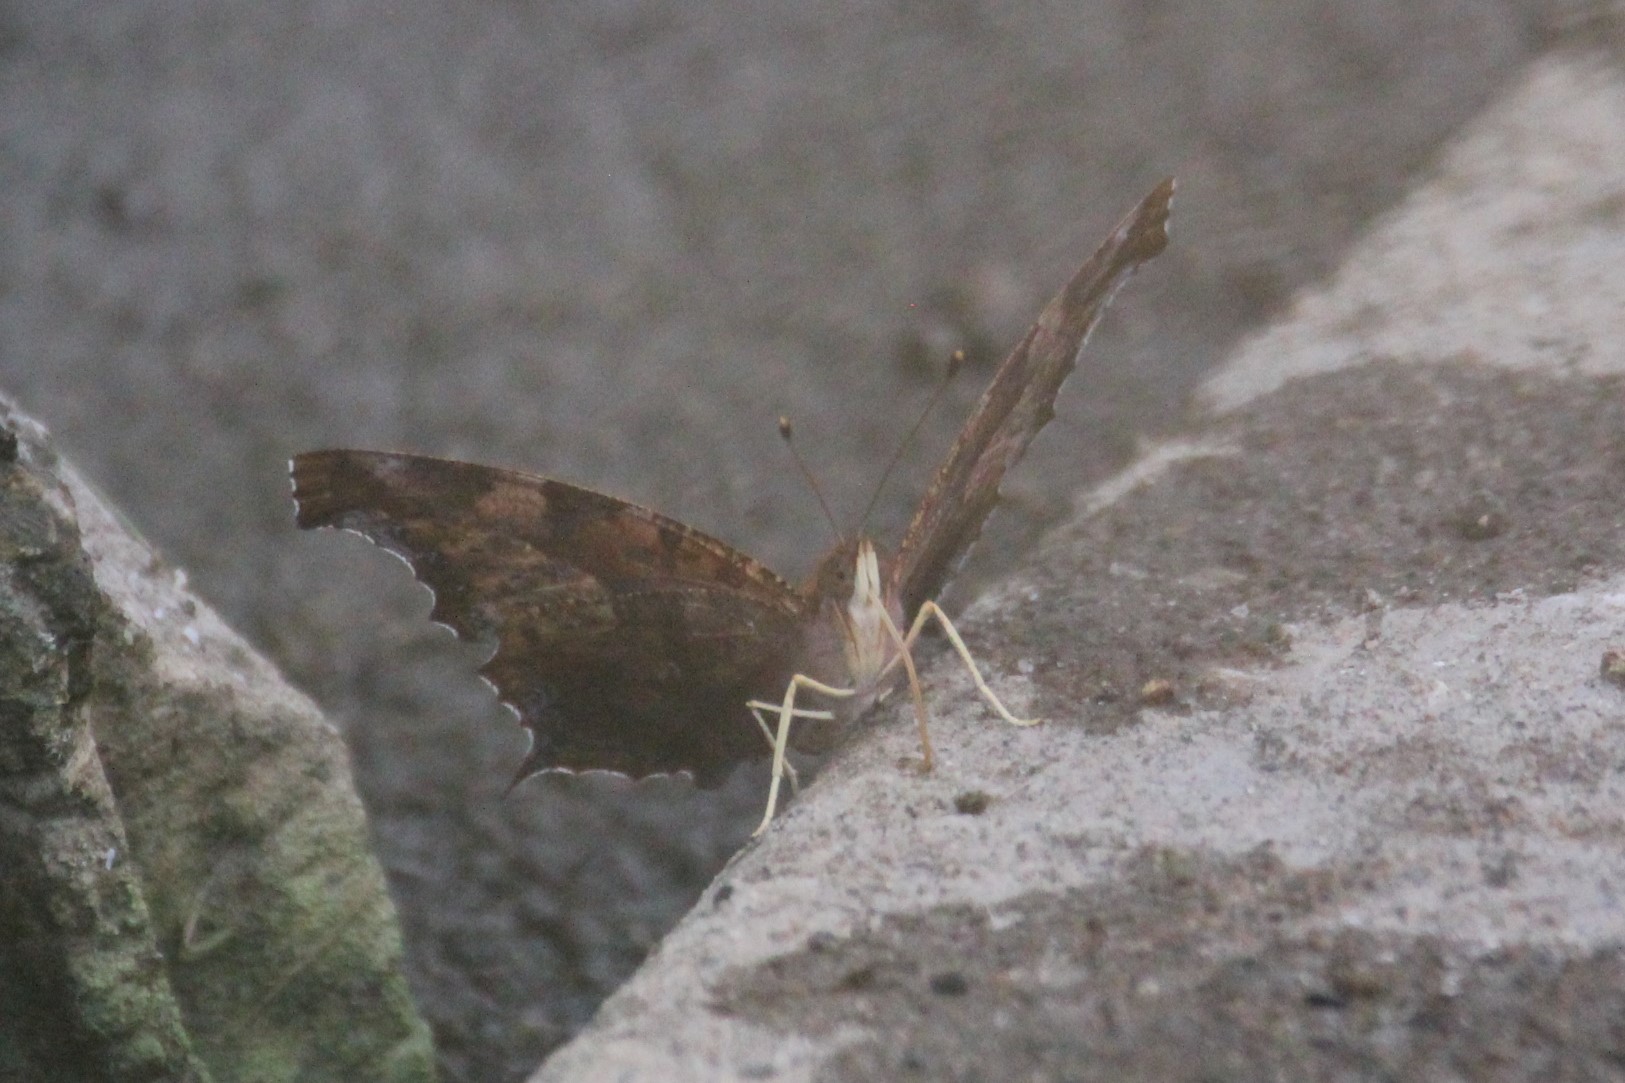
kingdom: Animalia
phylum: Arthropoda
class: Insecta
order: Lepidoptera
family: Nymphalidae
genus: Polygonia
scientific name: Polygonia interrogationis
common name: Question mark
